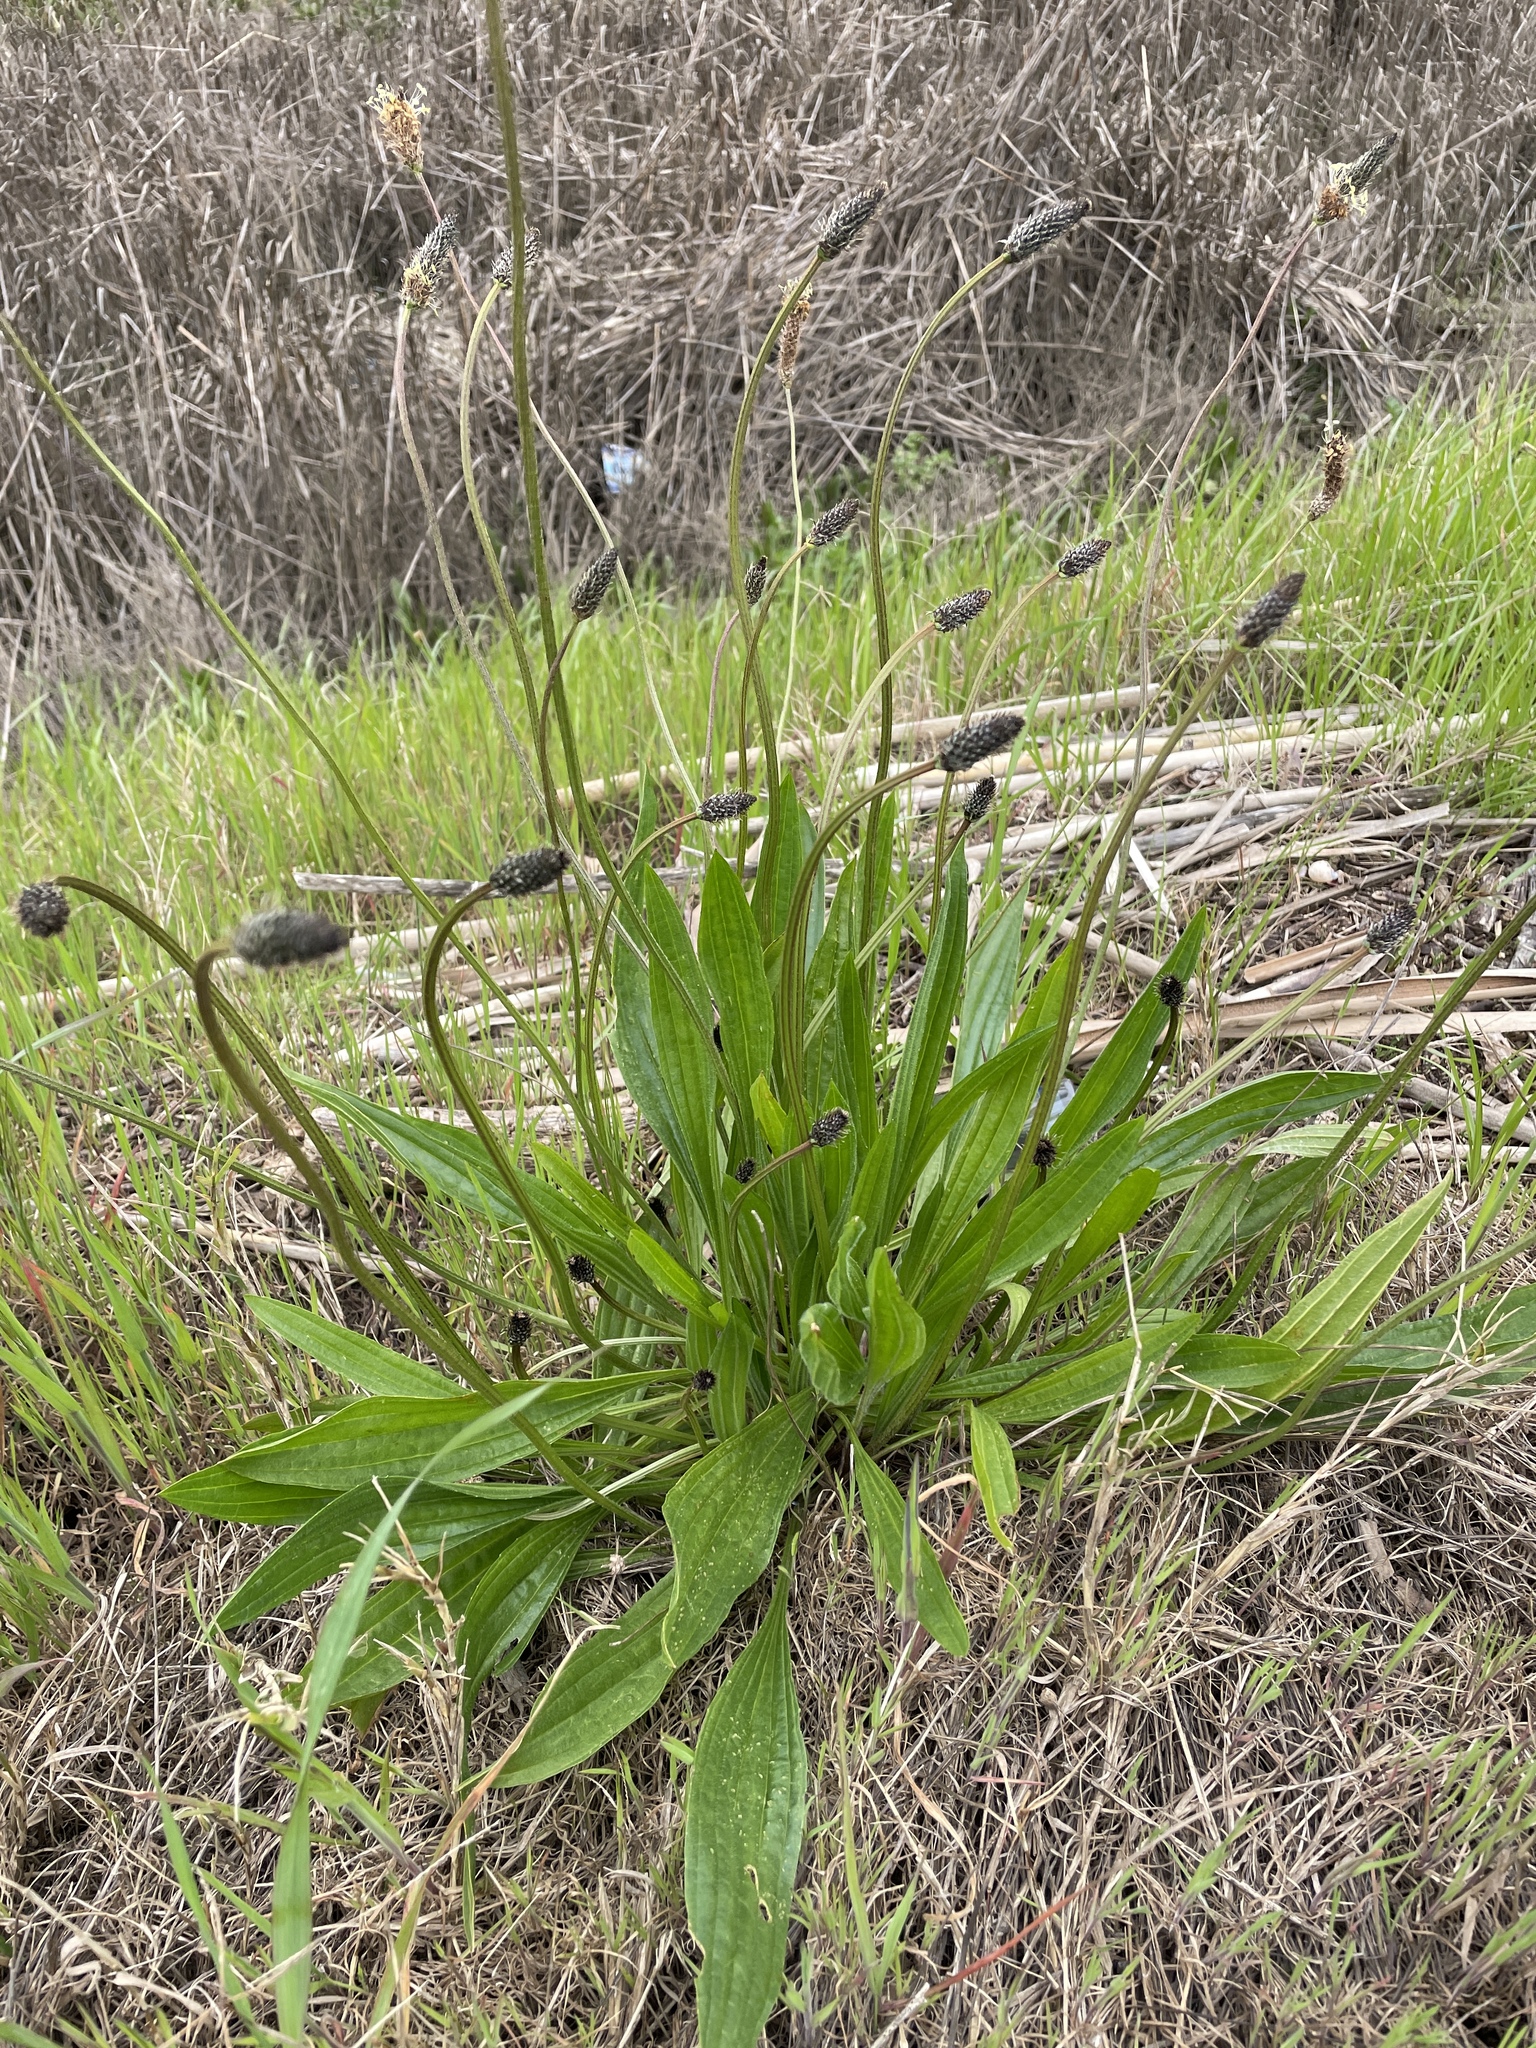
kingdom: Plantae
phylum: Tracheophyta
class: Magnoliopsida
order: Lamiales
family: Plantaginaceae
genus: Plantago
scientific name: Plantago lanceolata
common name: Ribwort plantain
